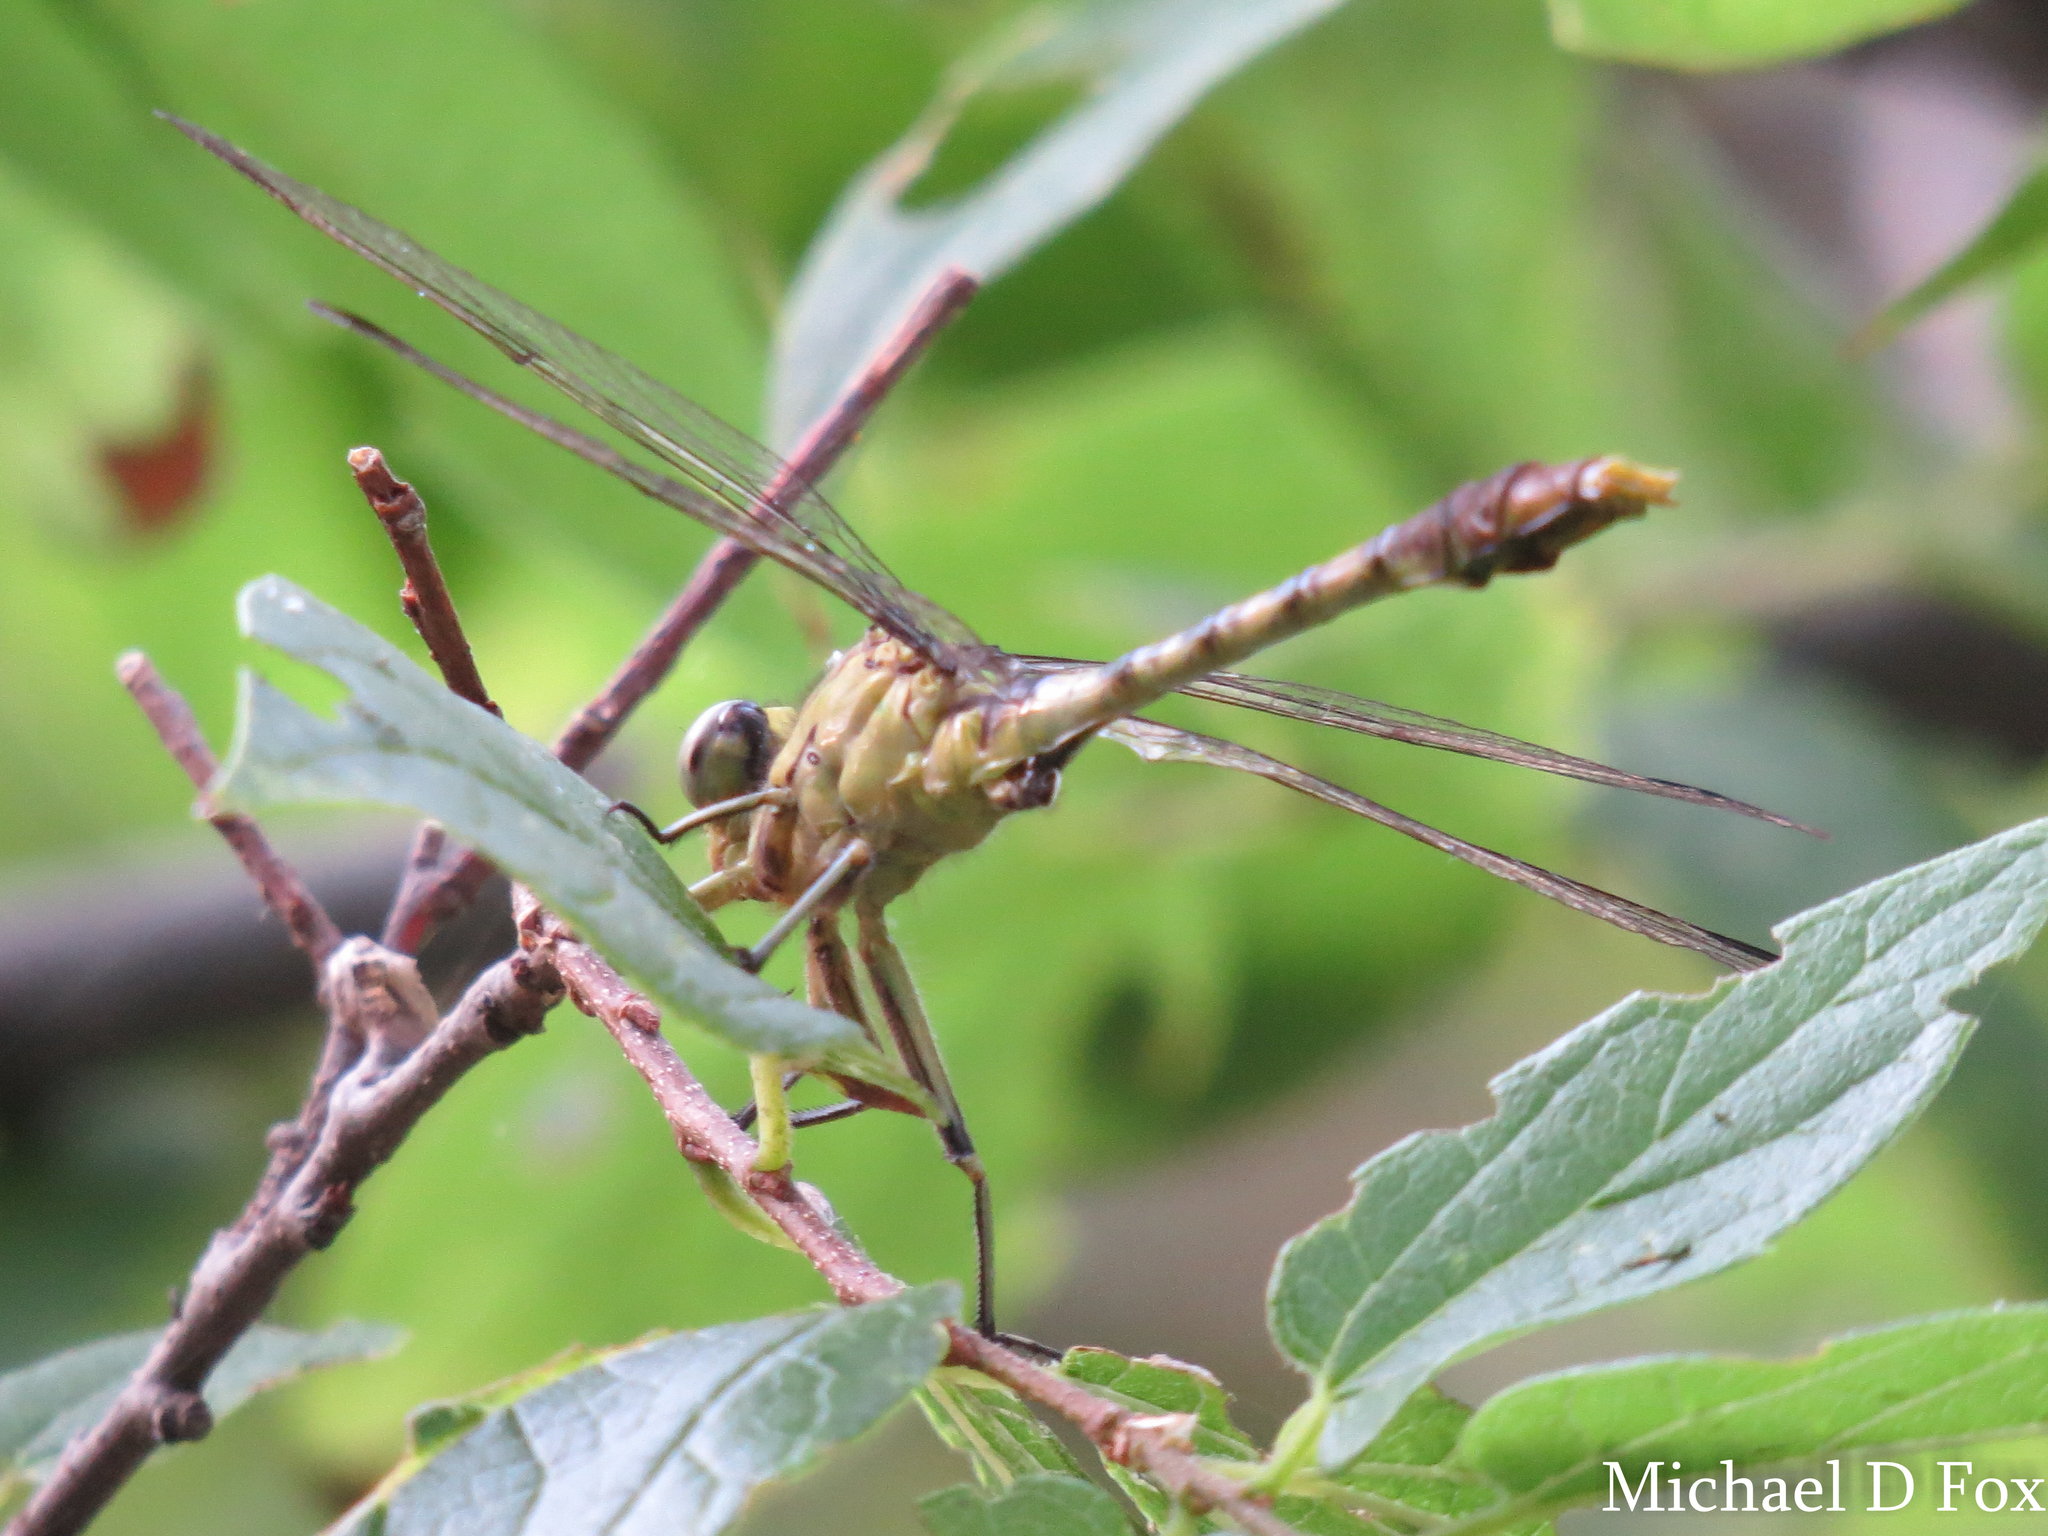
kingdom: Animalia
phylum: Arthropoda
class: Insecta
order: Odonata
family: Gomphidae
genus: Arigomphus
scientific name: Arigomphus submedianus
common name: Jade clubtail
